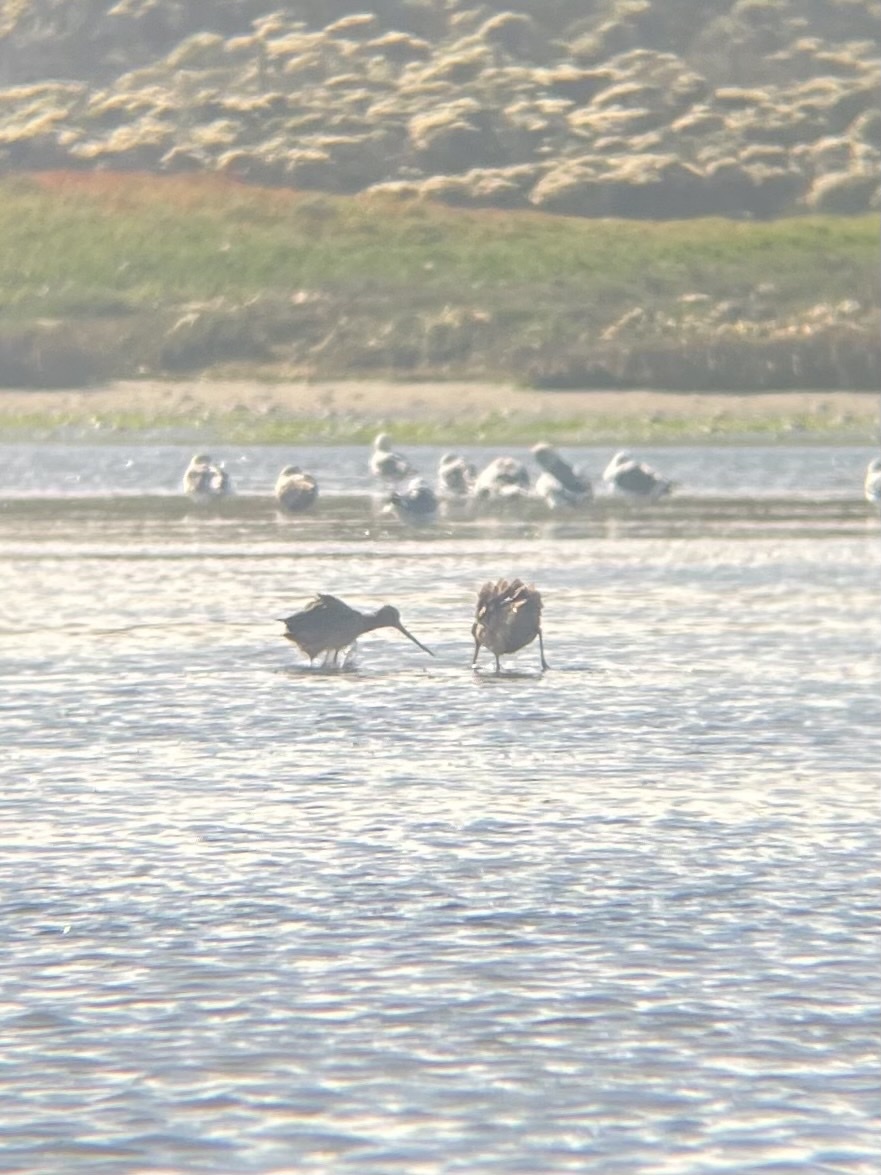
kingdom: Animalia
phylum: Chordata
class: Aves
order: Charadriiformes
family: Scolopacidae
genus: Limosa
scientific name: Limosa fedoa
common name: Marbled godwit
